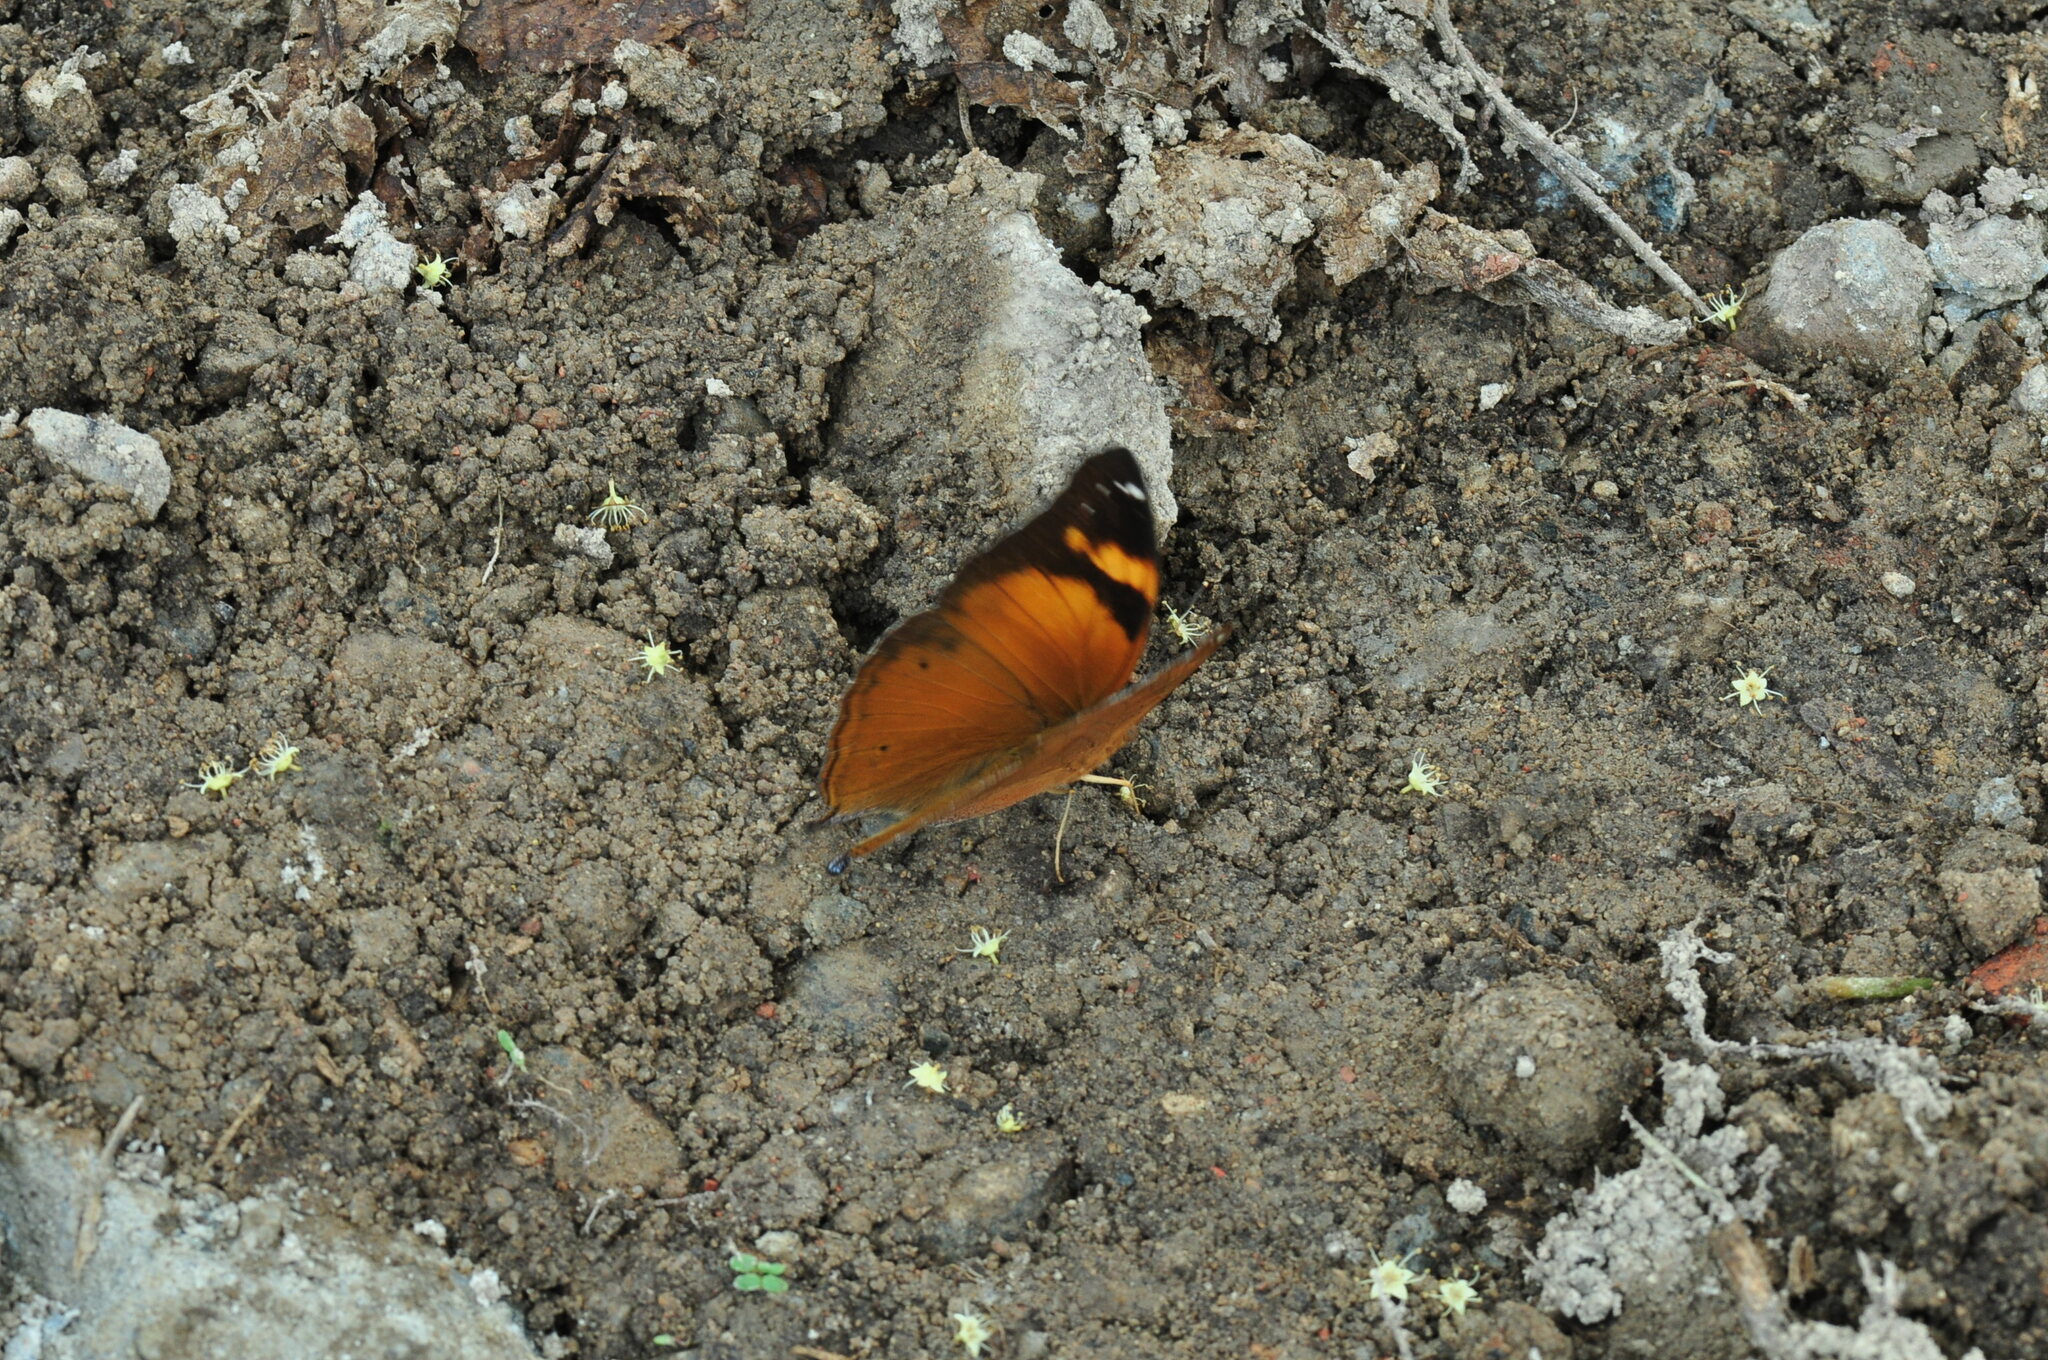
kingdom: Animalia
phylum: Arthropoda
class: Insecta
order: Lepidoptera
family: Nymphalidae
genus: Doleschallia
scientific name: Doleschallia bisaltide
